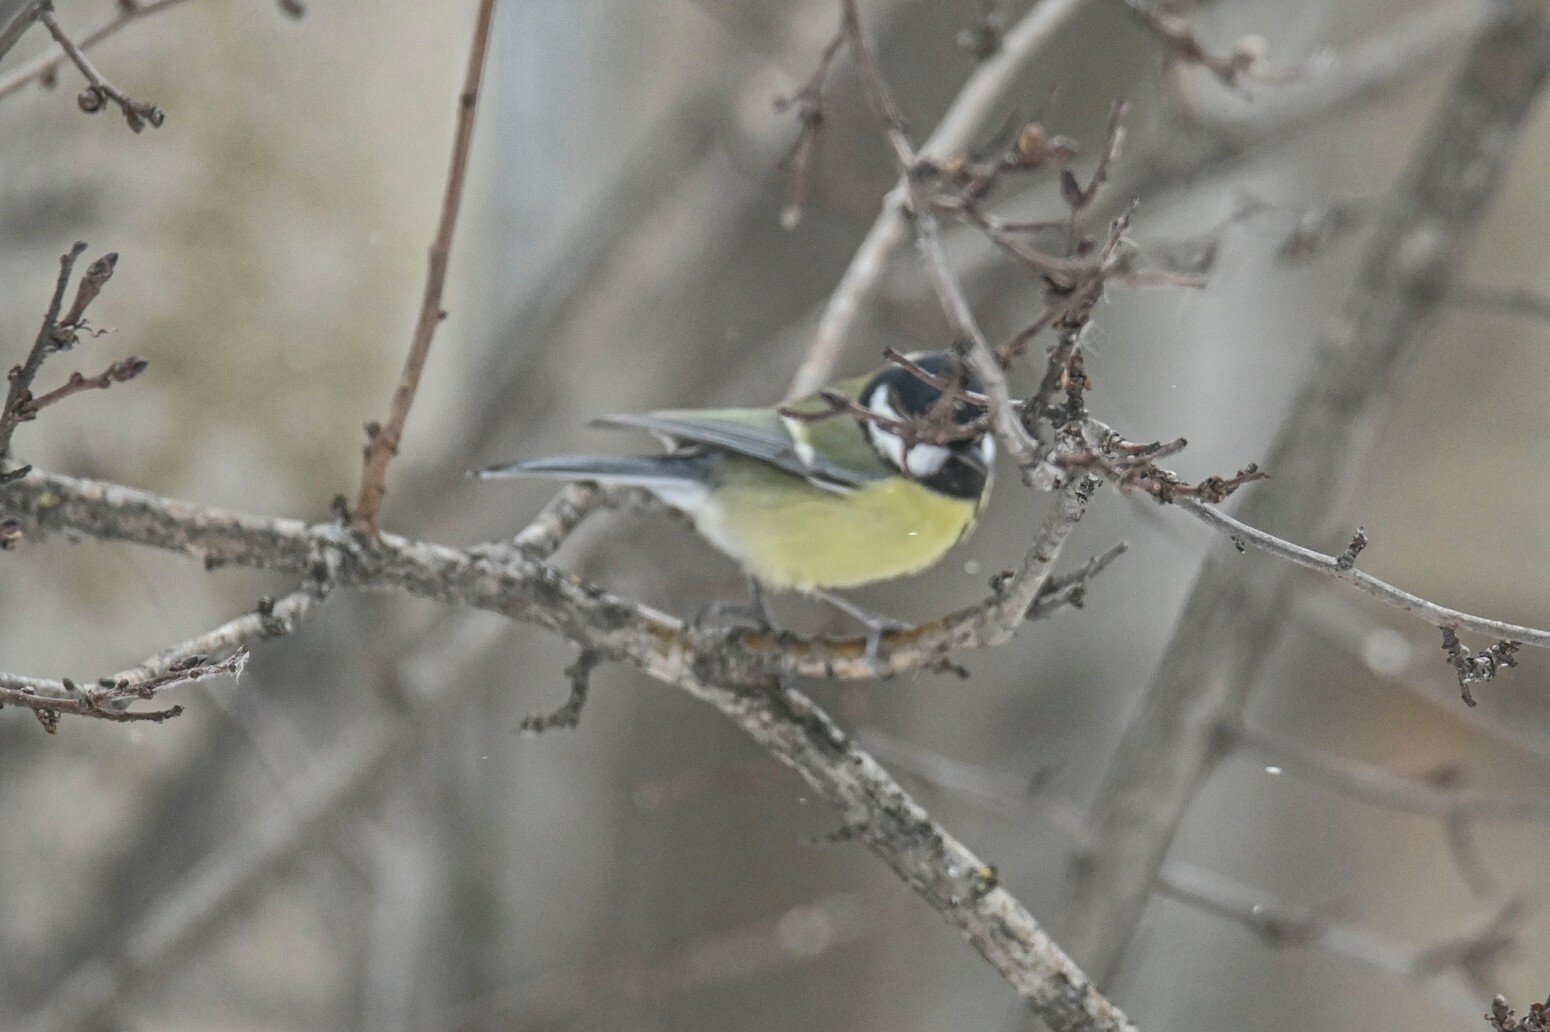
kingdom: Animalia
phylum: Chordata
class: Aves
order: Passeriformes
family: Paridae
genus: Parus
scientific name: Parus major
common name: Great tit
